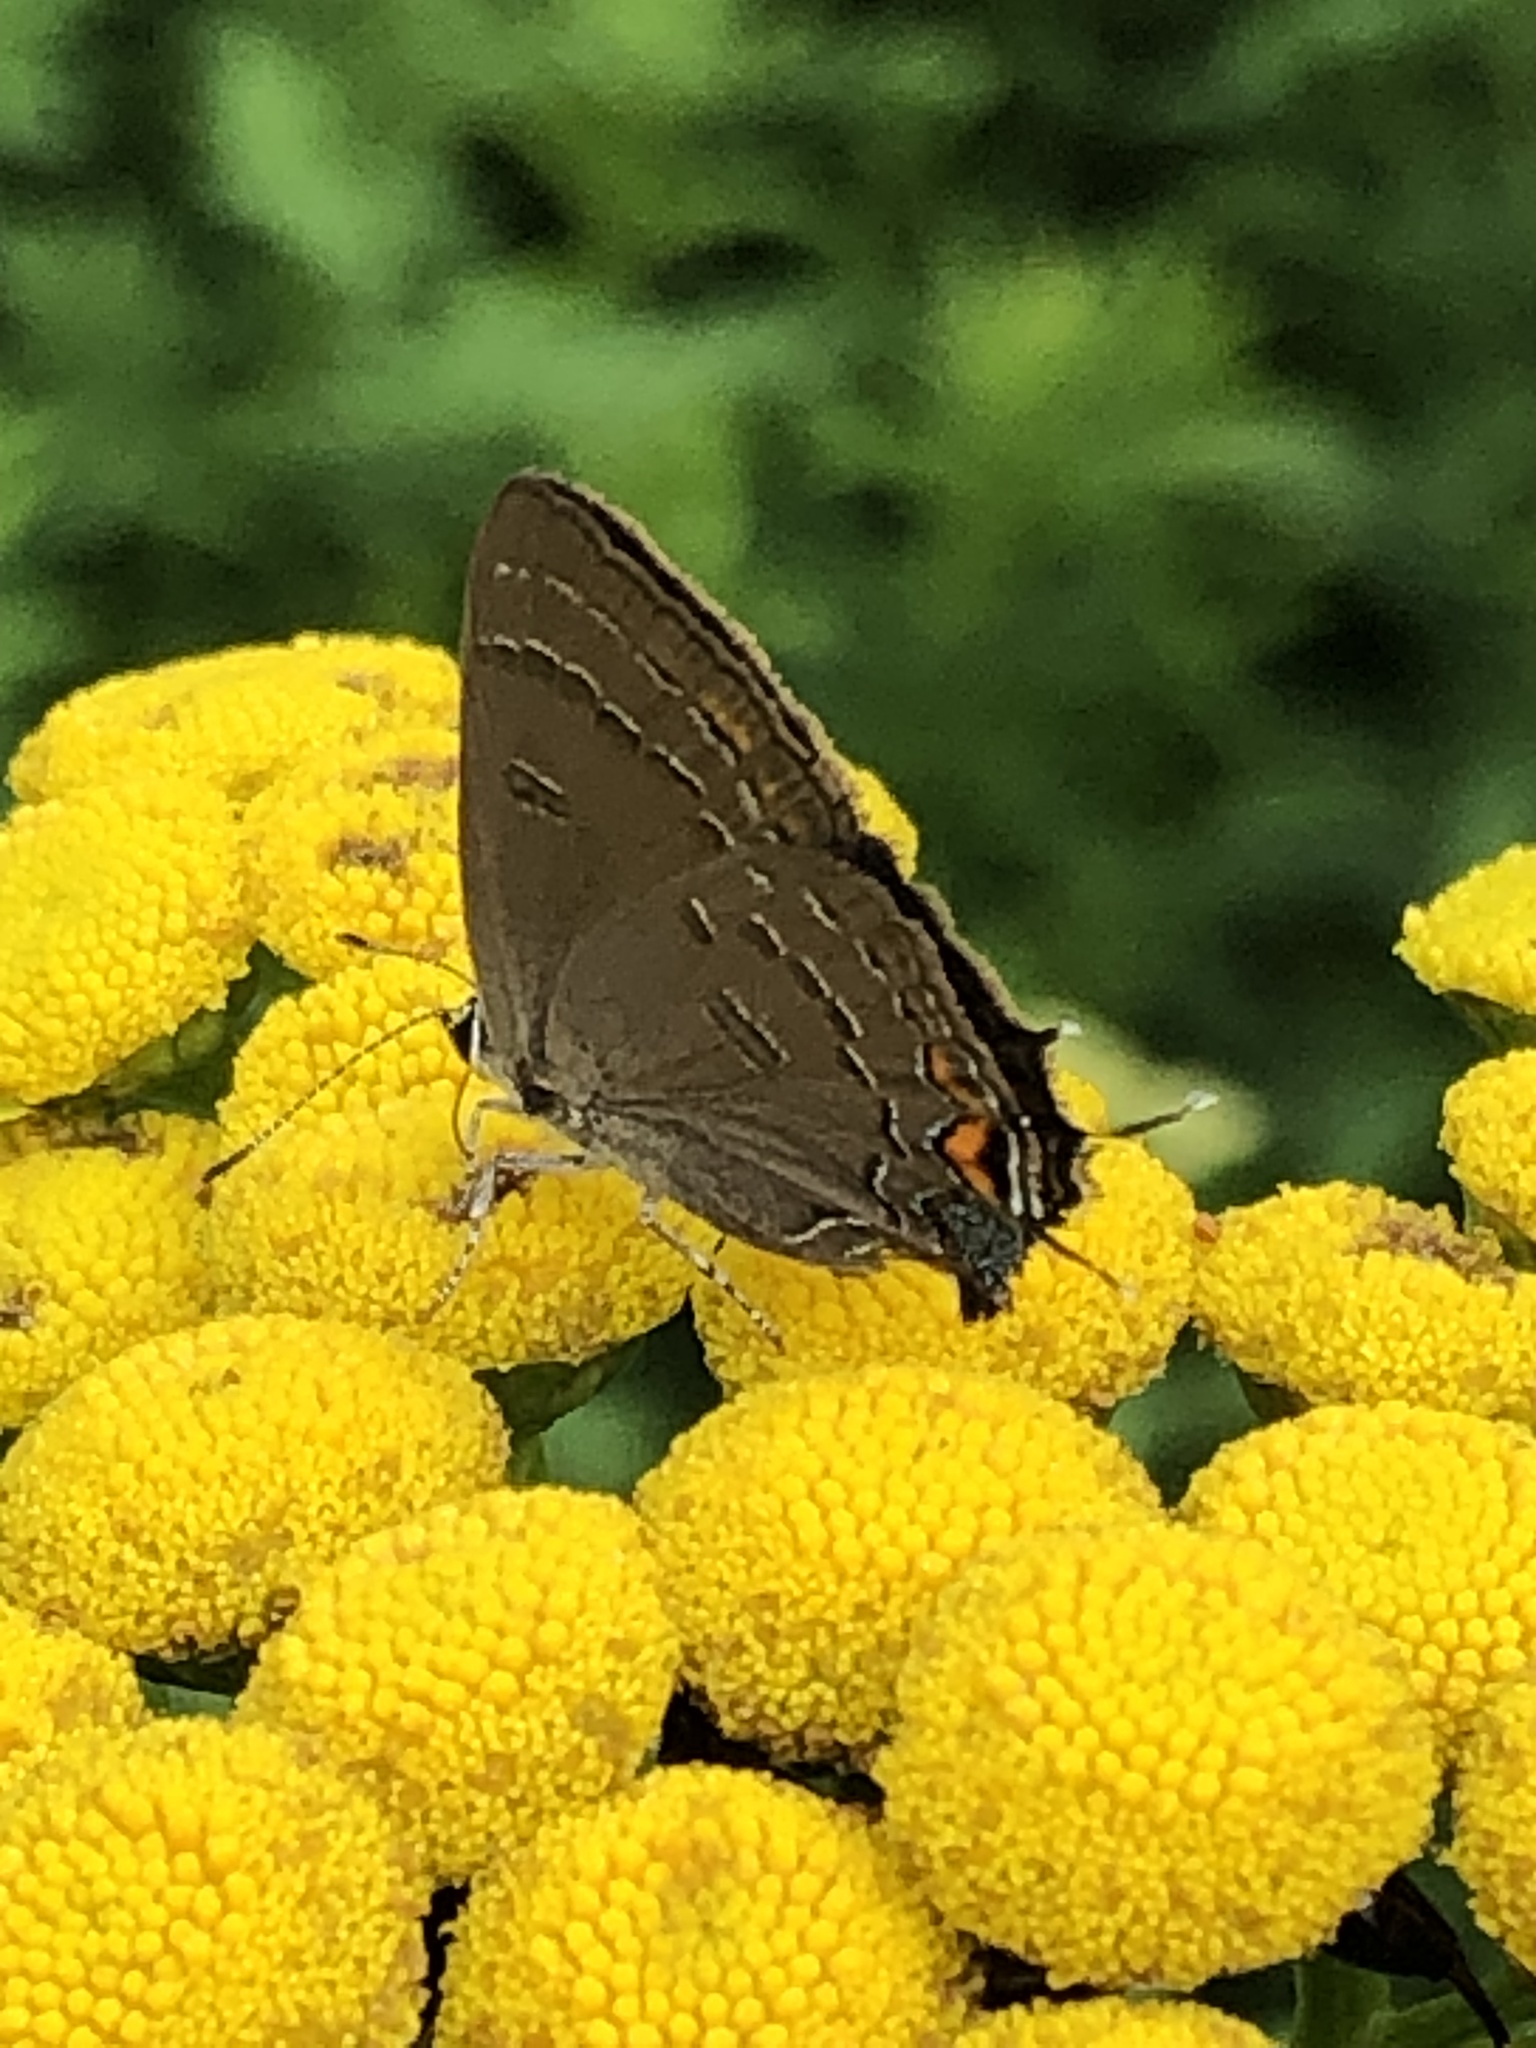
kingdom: Animalia
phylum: Arthropoda
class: Insecta
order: Lepidoptera
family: Lycaenidae
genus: Satyrium
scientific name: Satyrium calanus
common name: Banded hairstreak
